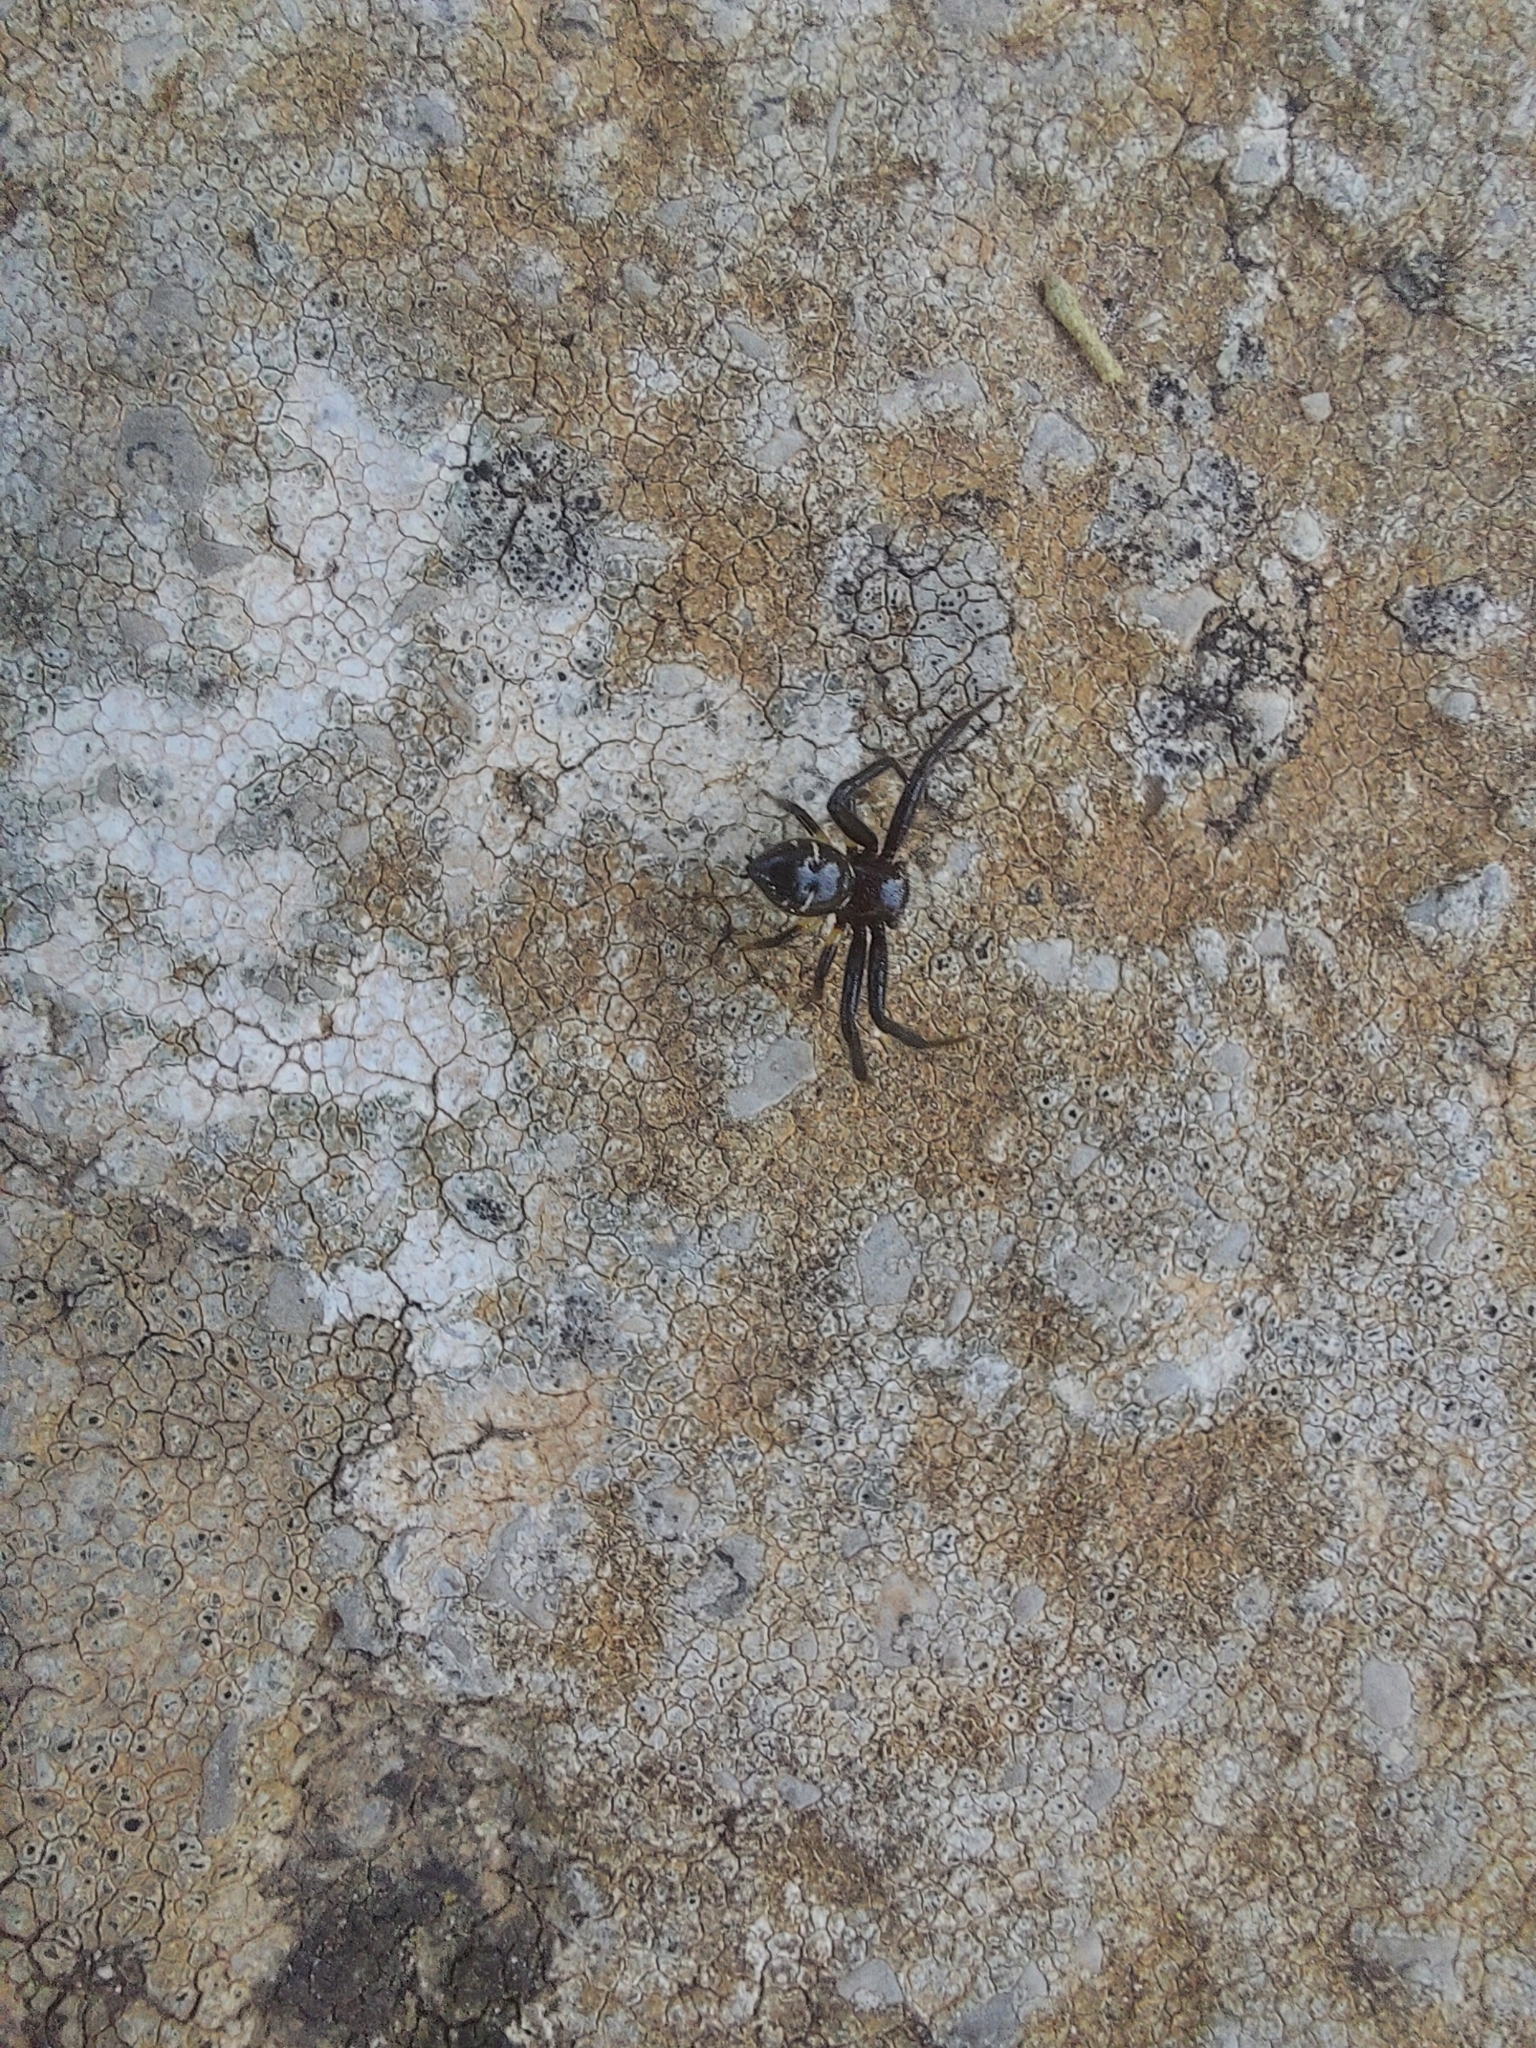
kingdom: Animalia
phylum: Arthropoda
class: Arachnida
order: Araneae
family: Thomisidae
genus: Synema
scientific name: Synema globosum
